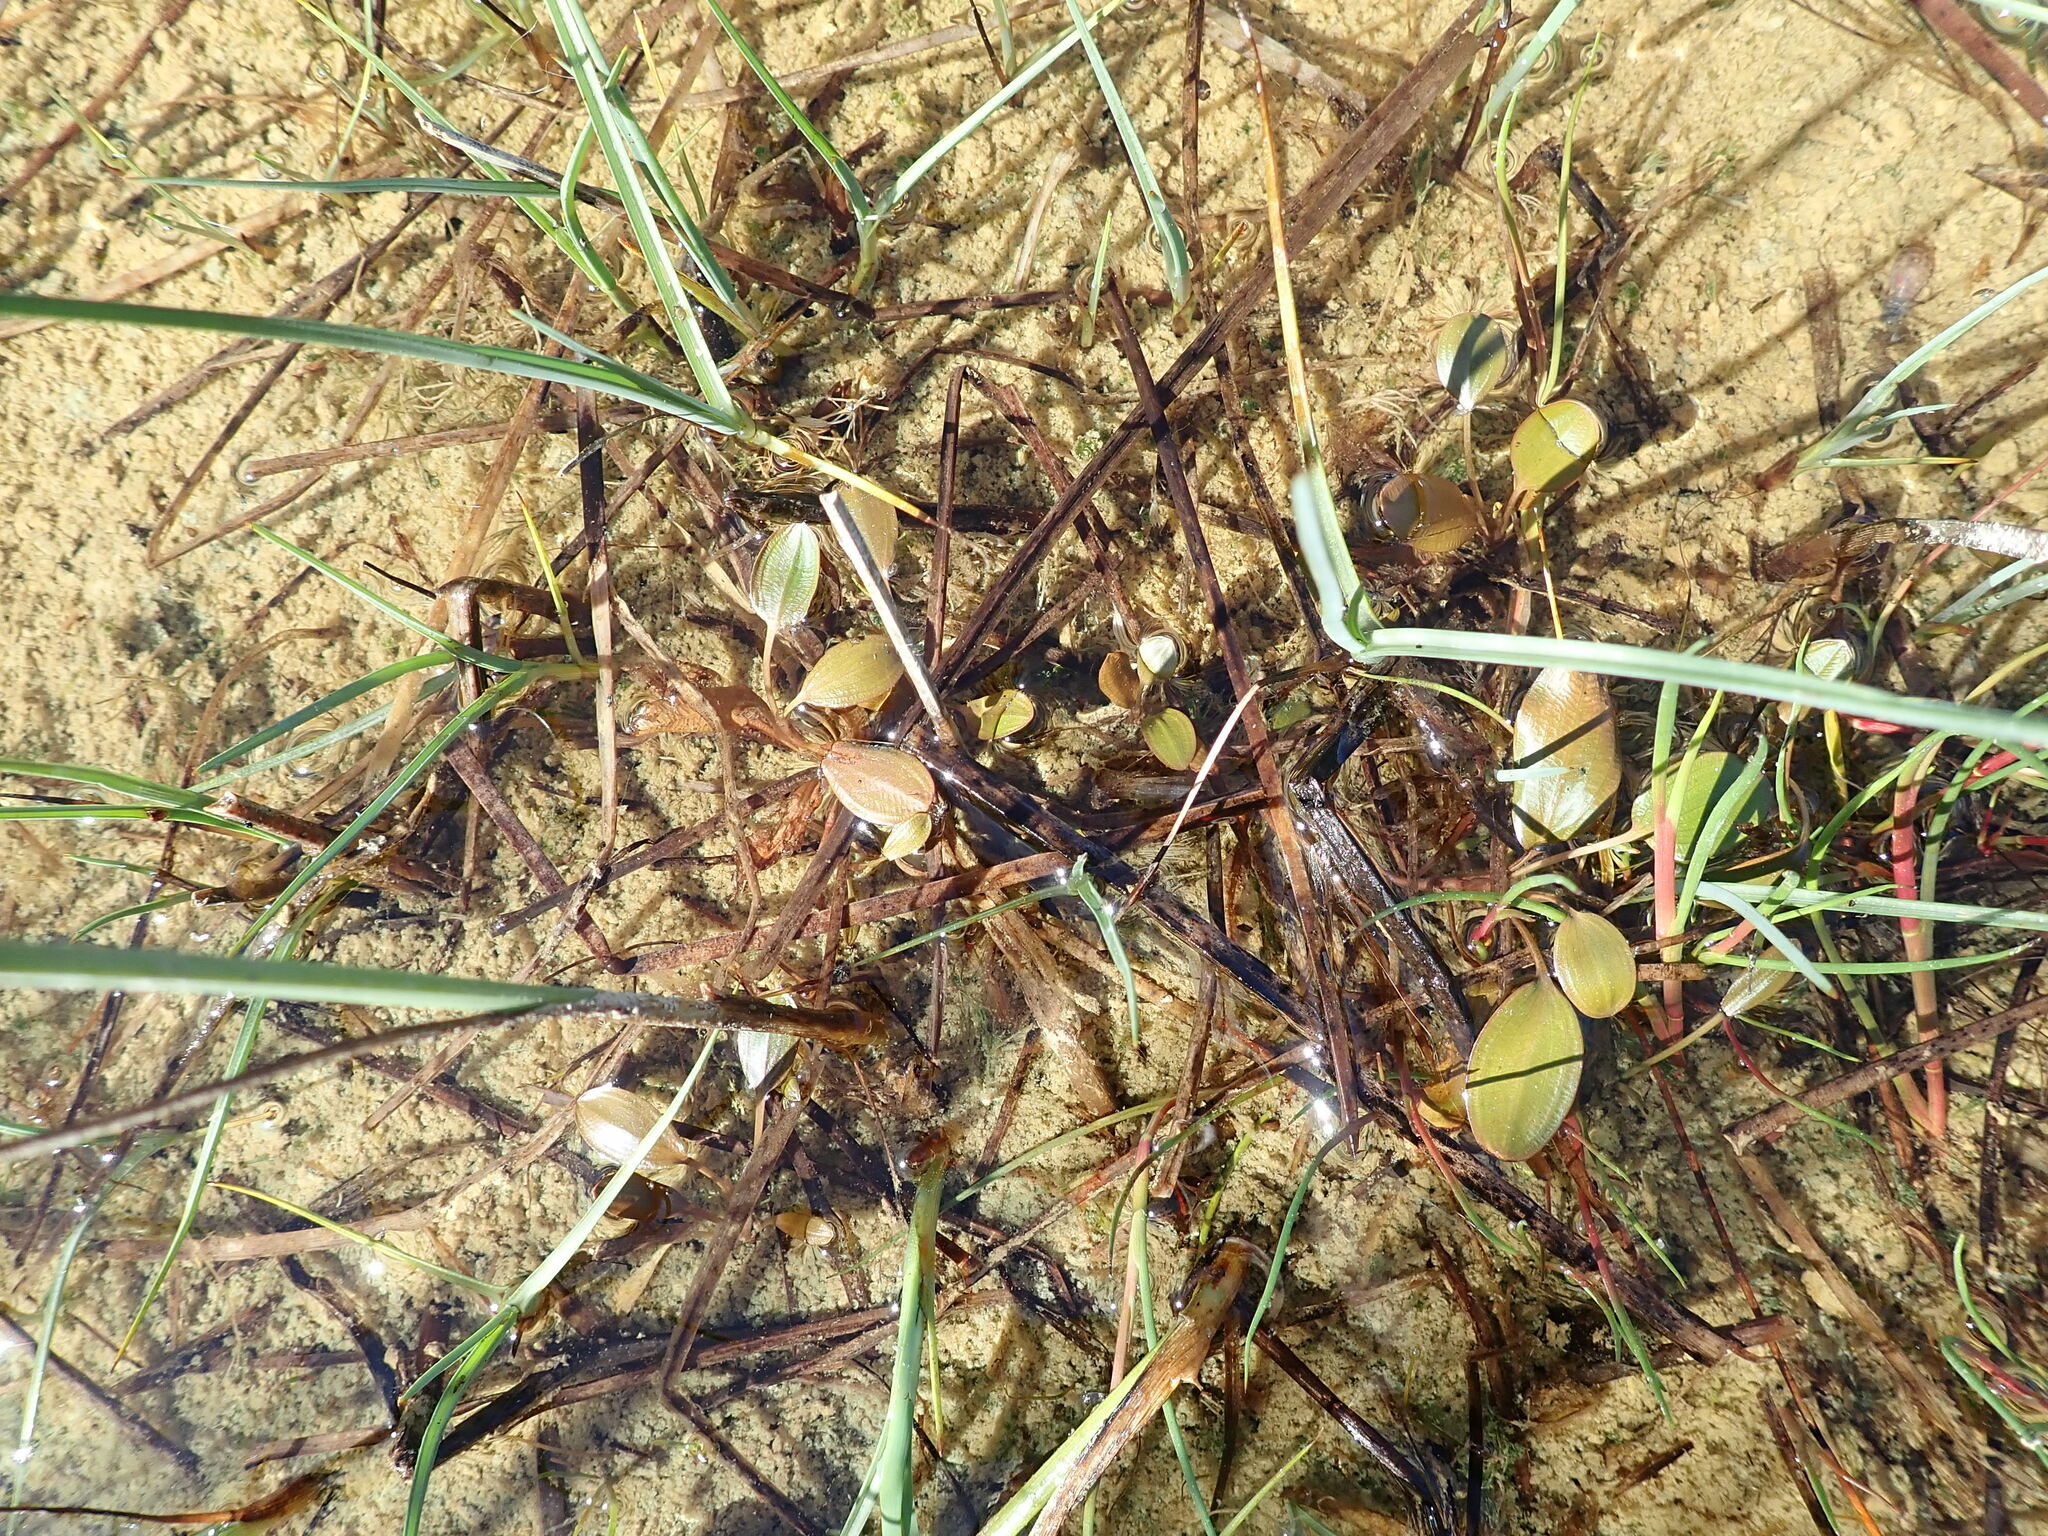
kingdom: Plantae
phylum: Tracheophyta
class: Liliopsida
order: Alismatales
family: Potamogetonaceae
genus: Potamogeton
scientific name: Potamogeton cheesemanii
